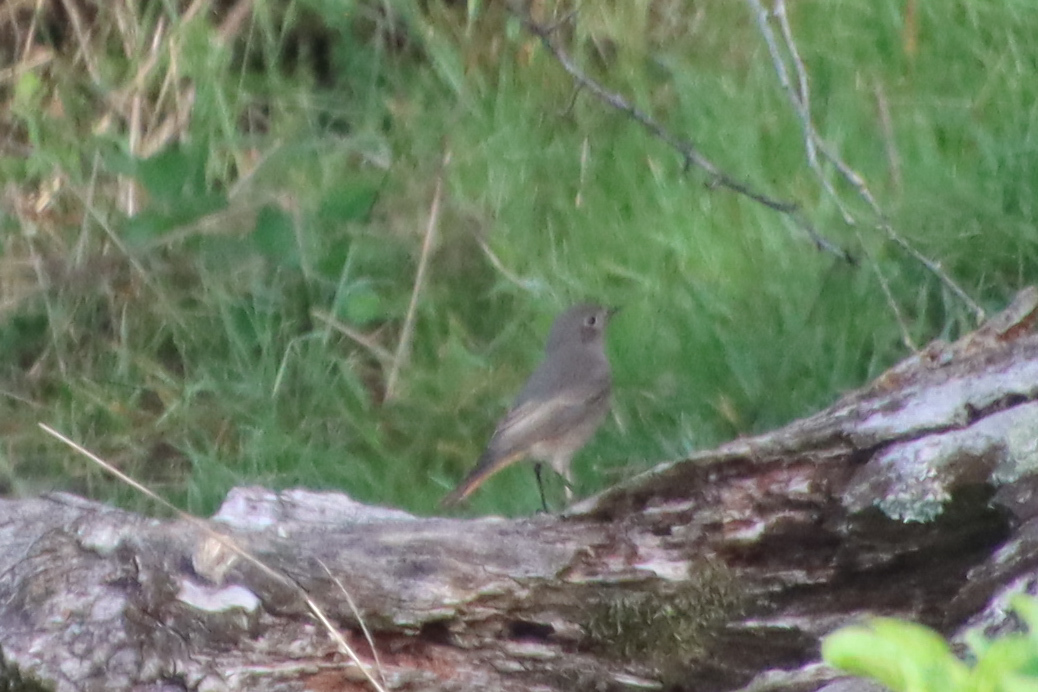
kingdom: Animalia
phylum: Chordata
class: Aves
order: Passeriformes
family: Muscicapidae
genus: Phoenicurus
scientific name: Phoenicurus ochruros
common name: Black redstart
